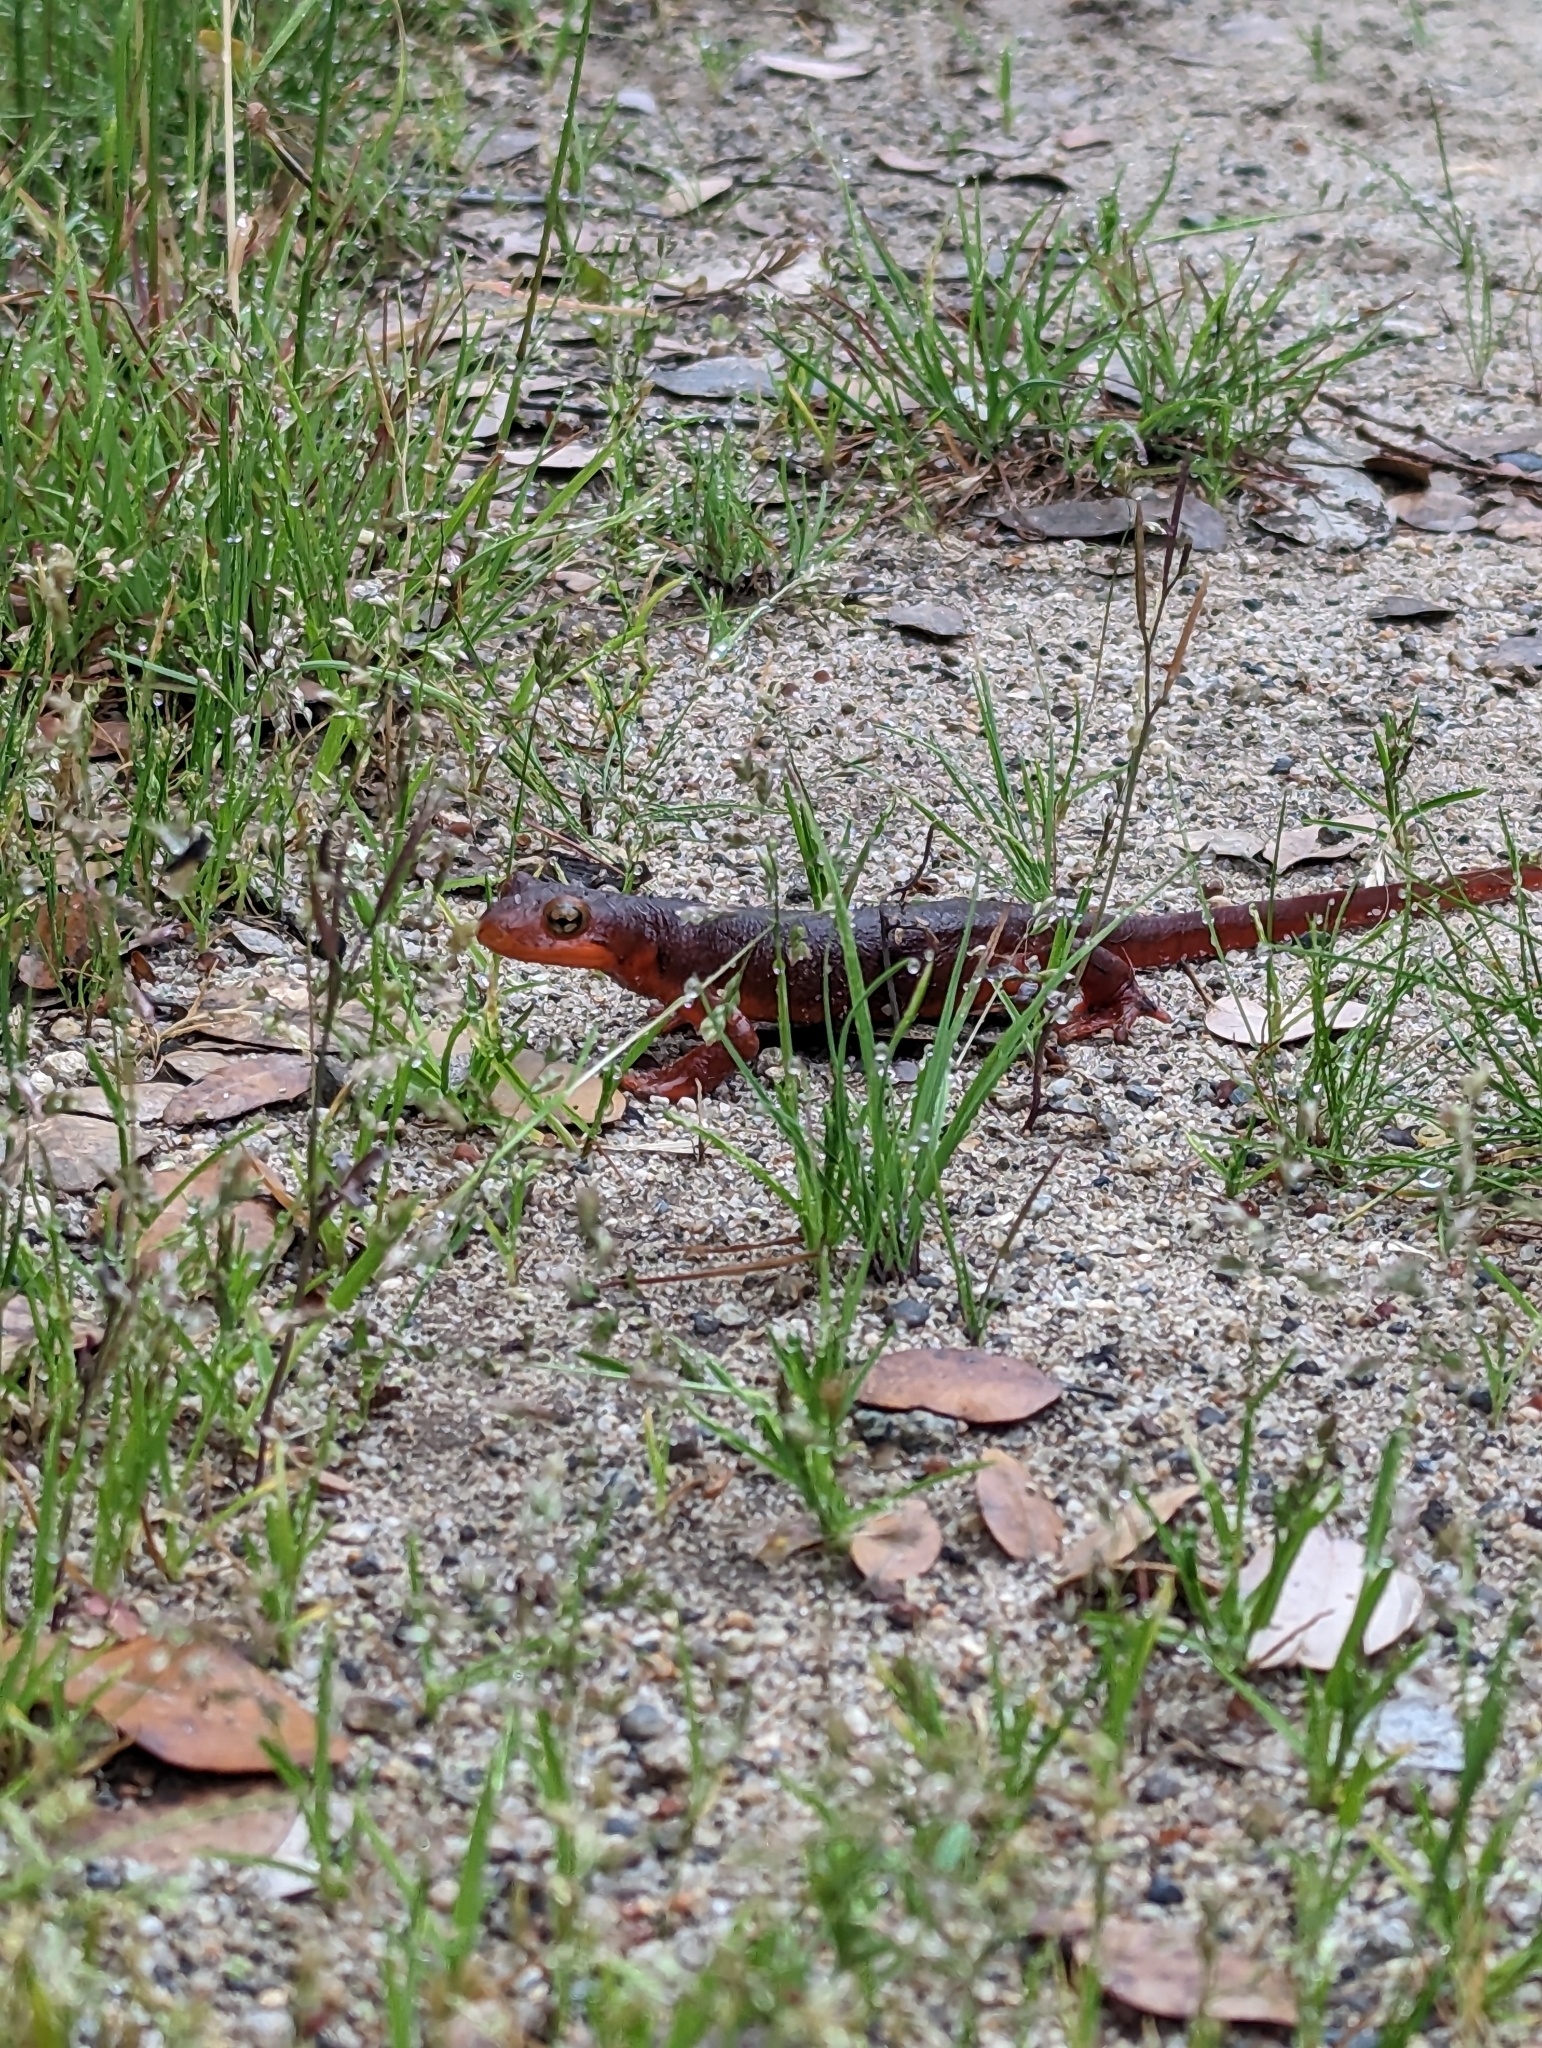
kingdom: Animalia
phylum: Chordata
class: Amphibia
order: Caudata
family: Salamandridae
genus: Taricha
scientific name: Taricha sierrae
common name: Sierra newt
